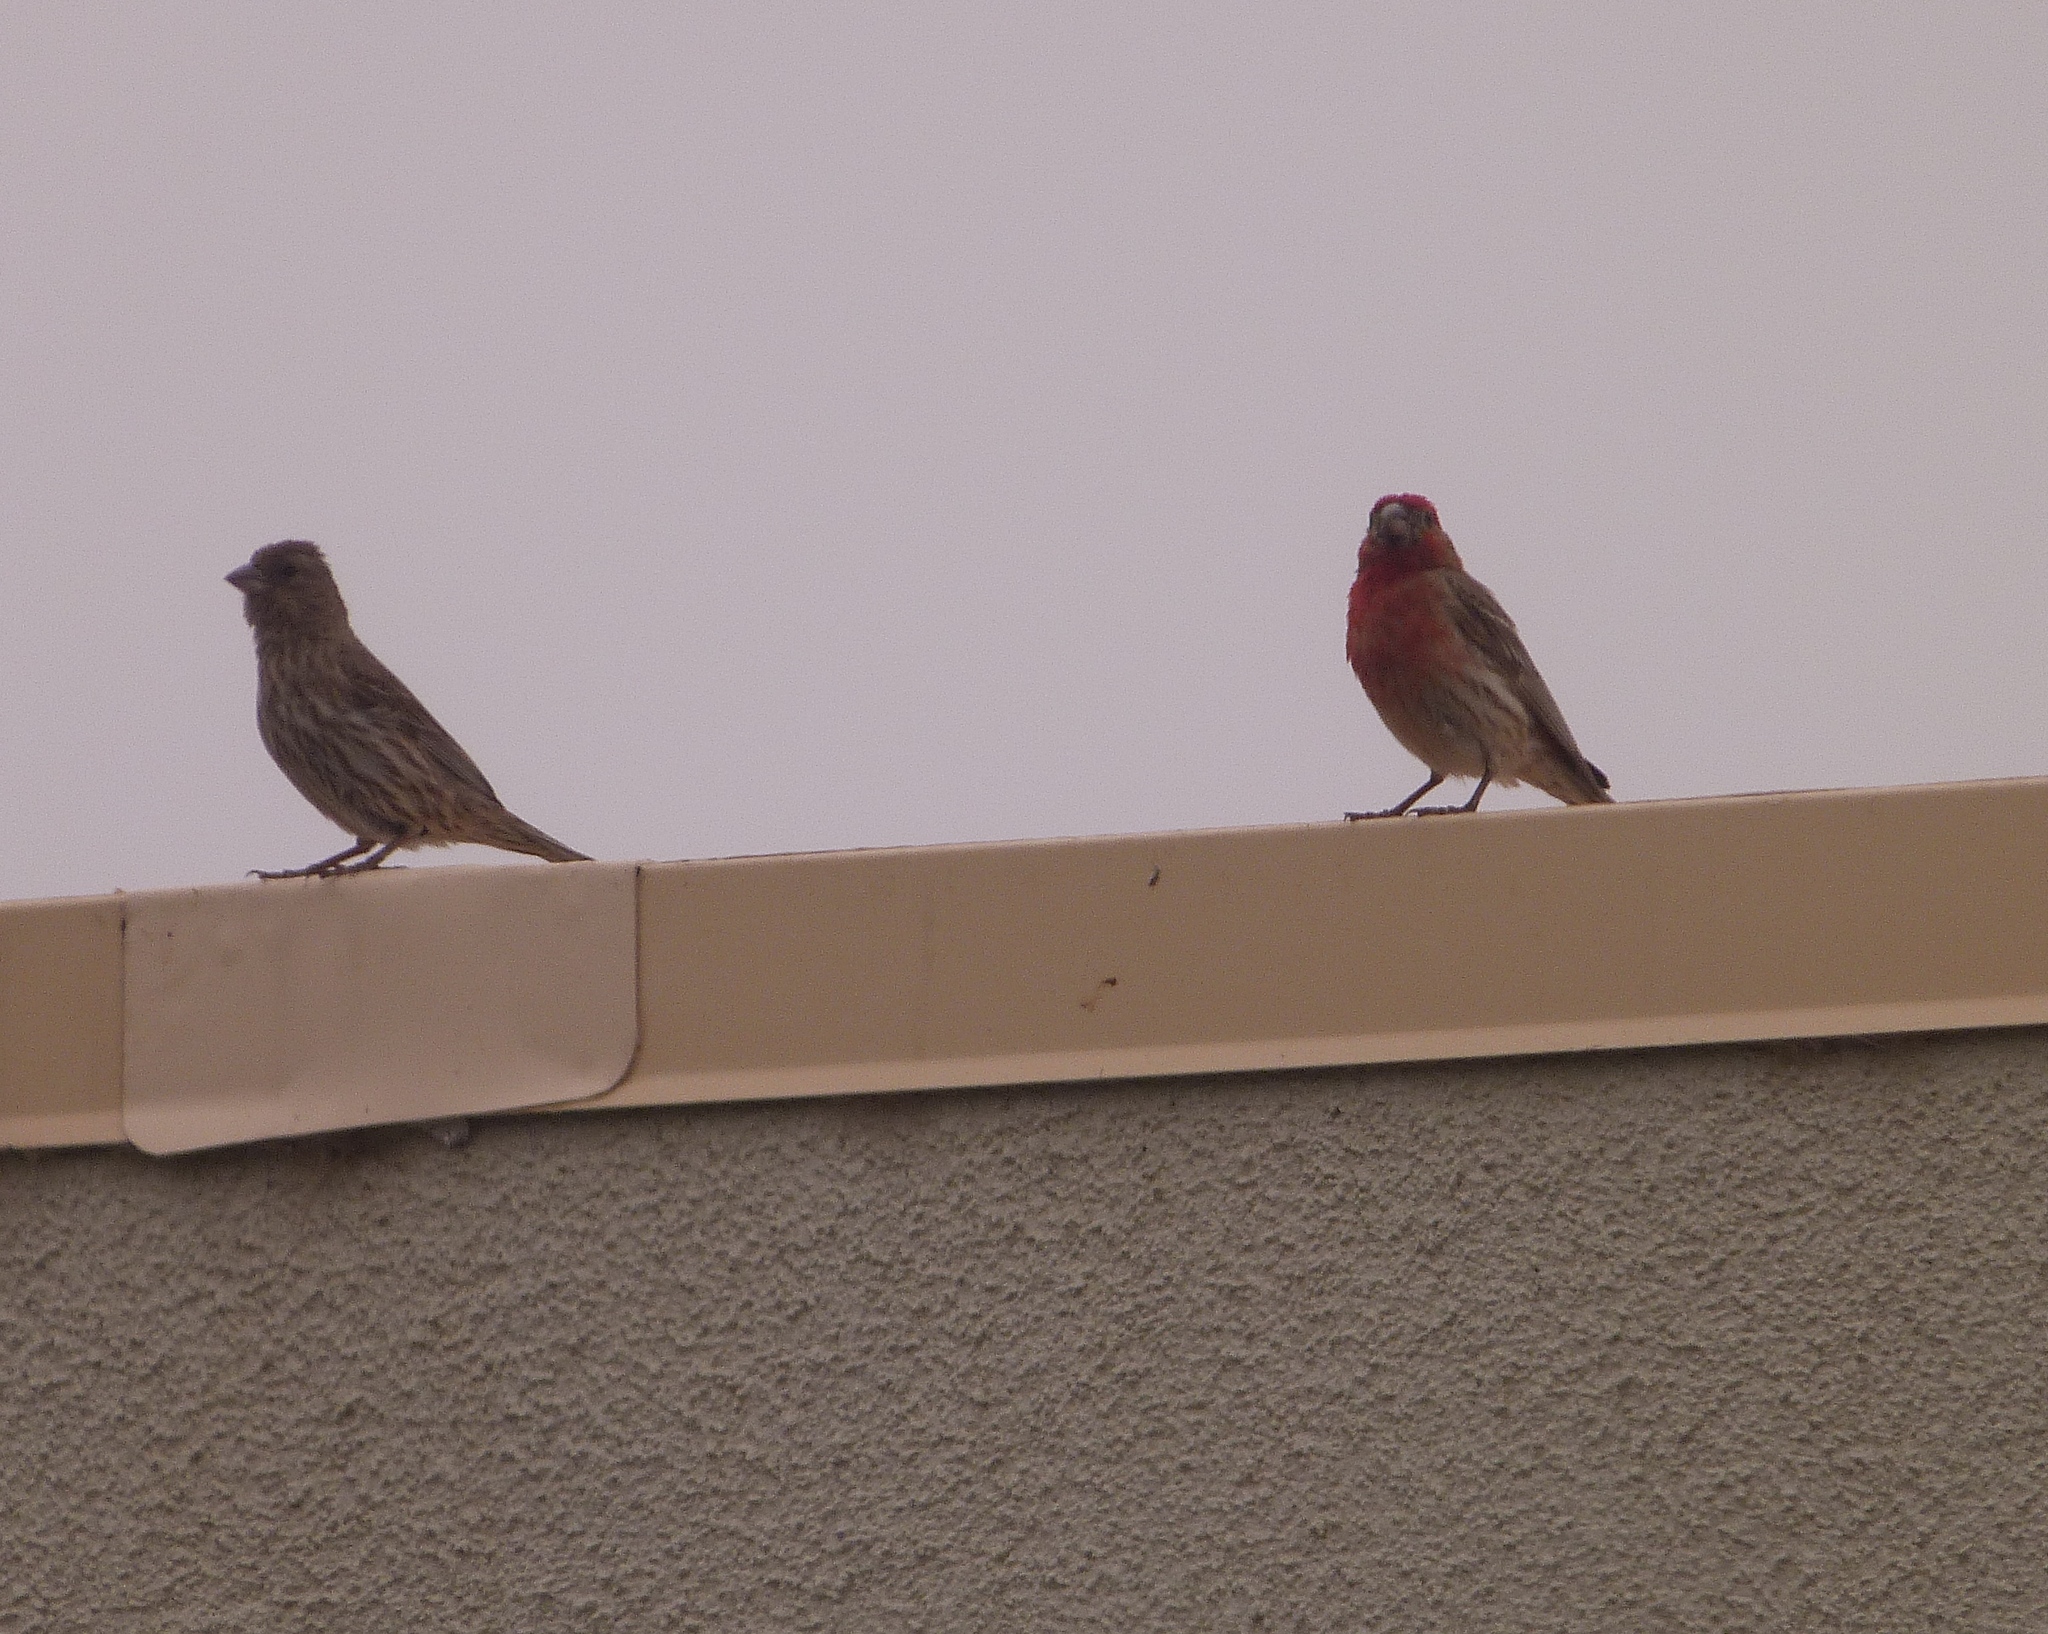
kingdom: Animalia
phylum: Chordata
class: Aves
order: Passeriformes
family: Fringillidae
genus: Haemorhous
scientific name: Haemorhous mexicanus
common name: House finch
